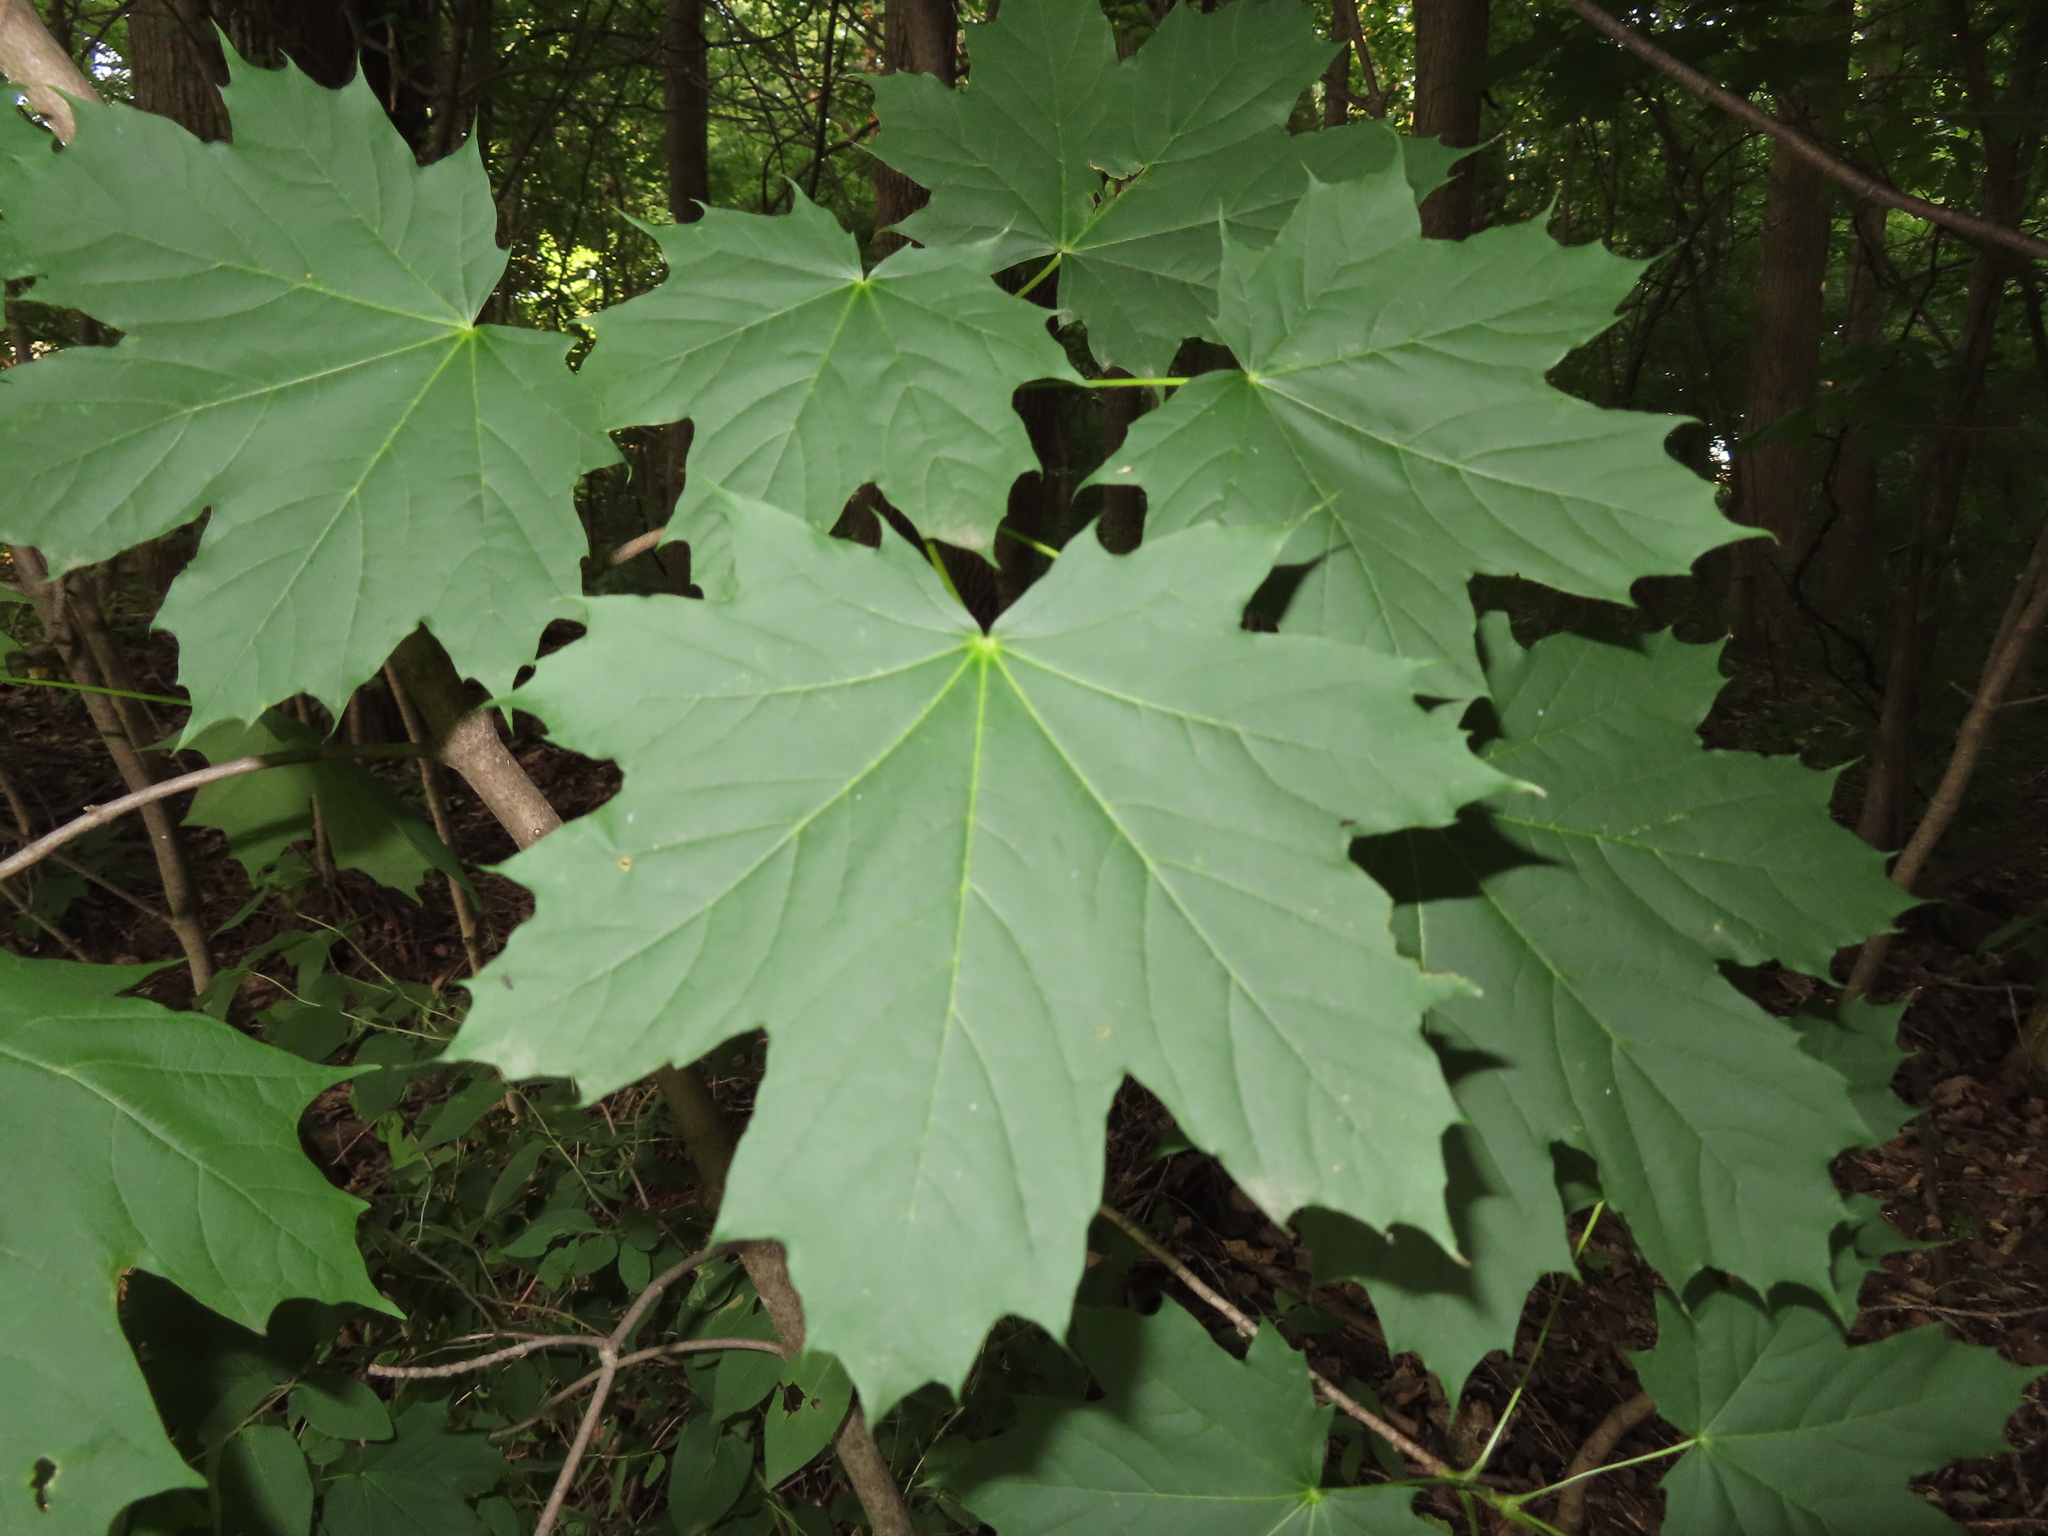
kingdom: Plantae
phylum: Tracheophyta
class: Magnoliopsida
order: Sapindales
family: Sapindaceae
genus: Acer
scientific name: Acer platanoides
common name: Norway maple
